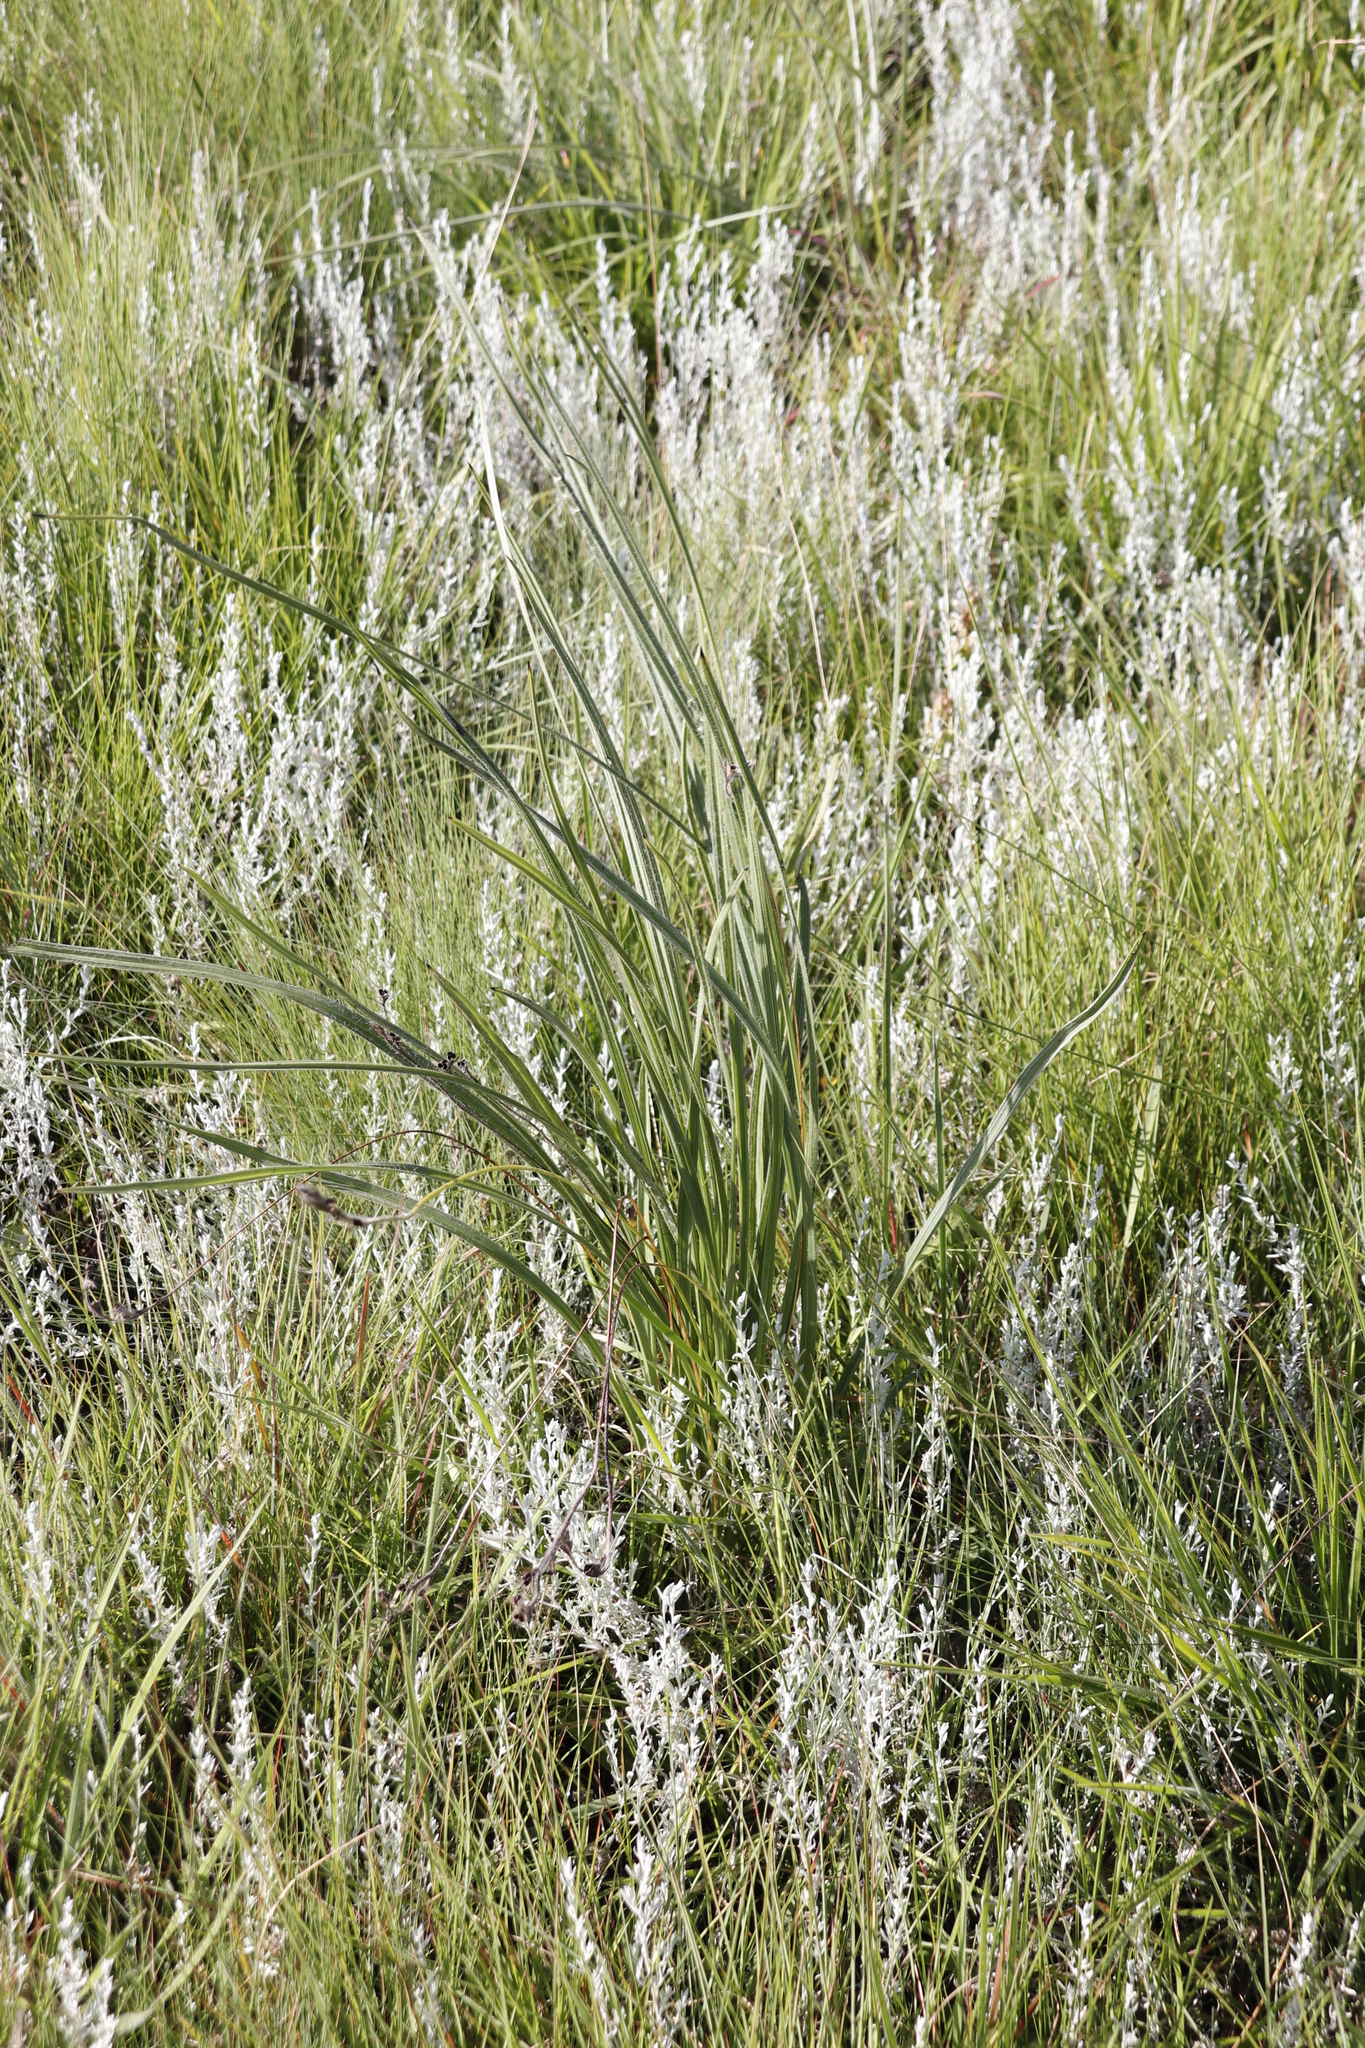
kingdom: Plantae
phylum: Tracheophyta
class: Liliopsida
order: Asparagales
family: Hypoxidaceae
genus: Hypoxis
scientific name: Hypoxis longifolia
